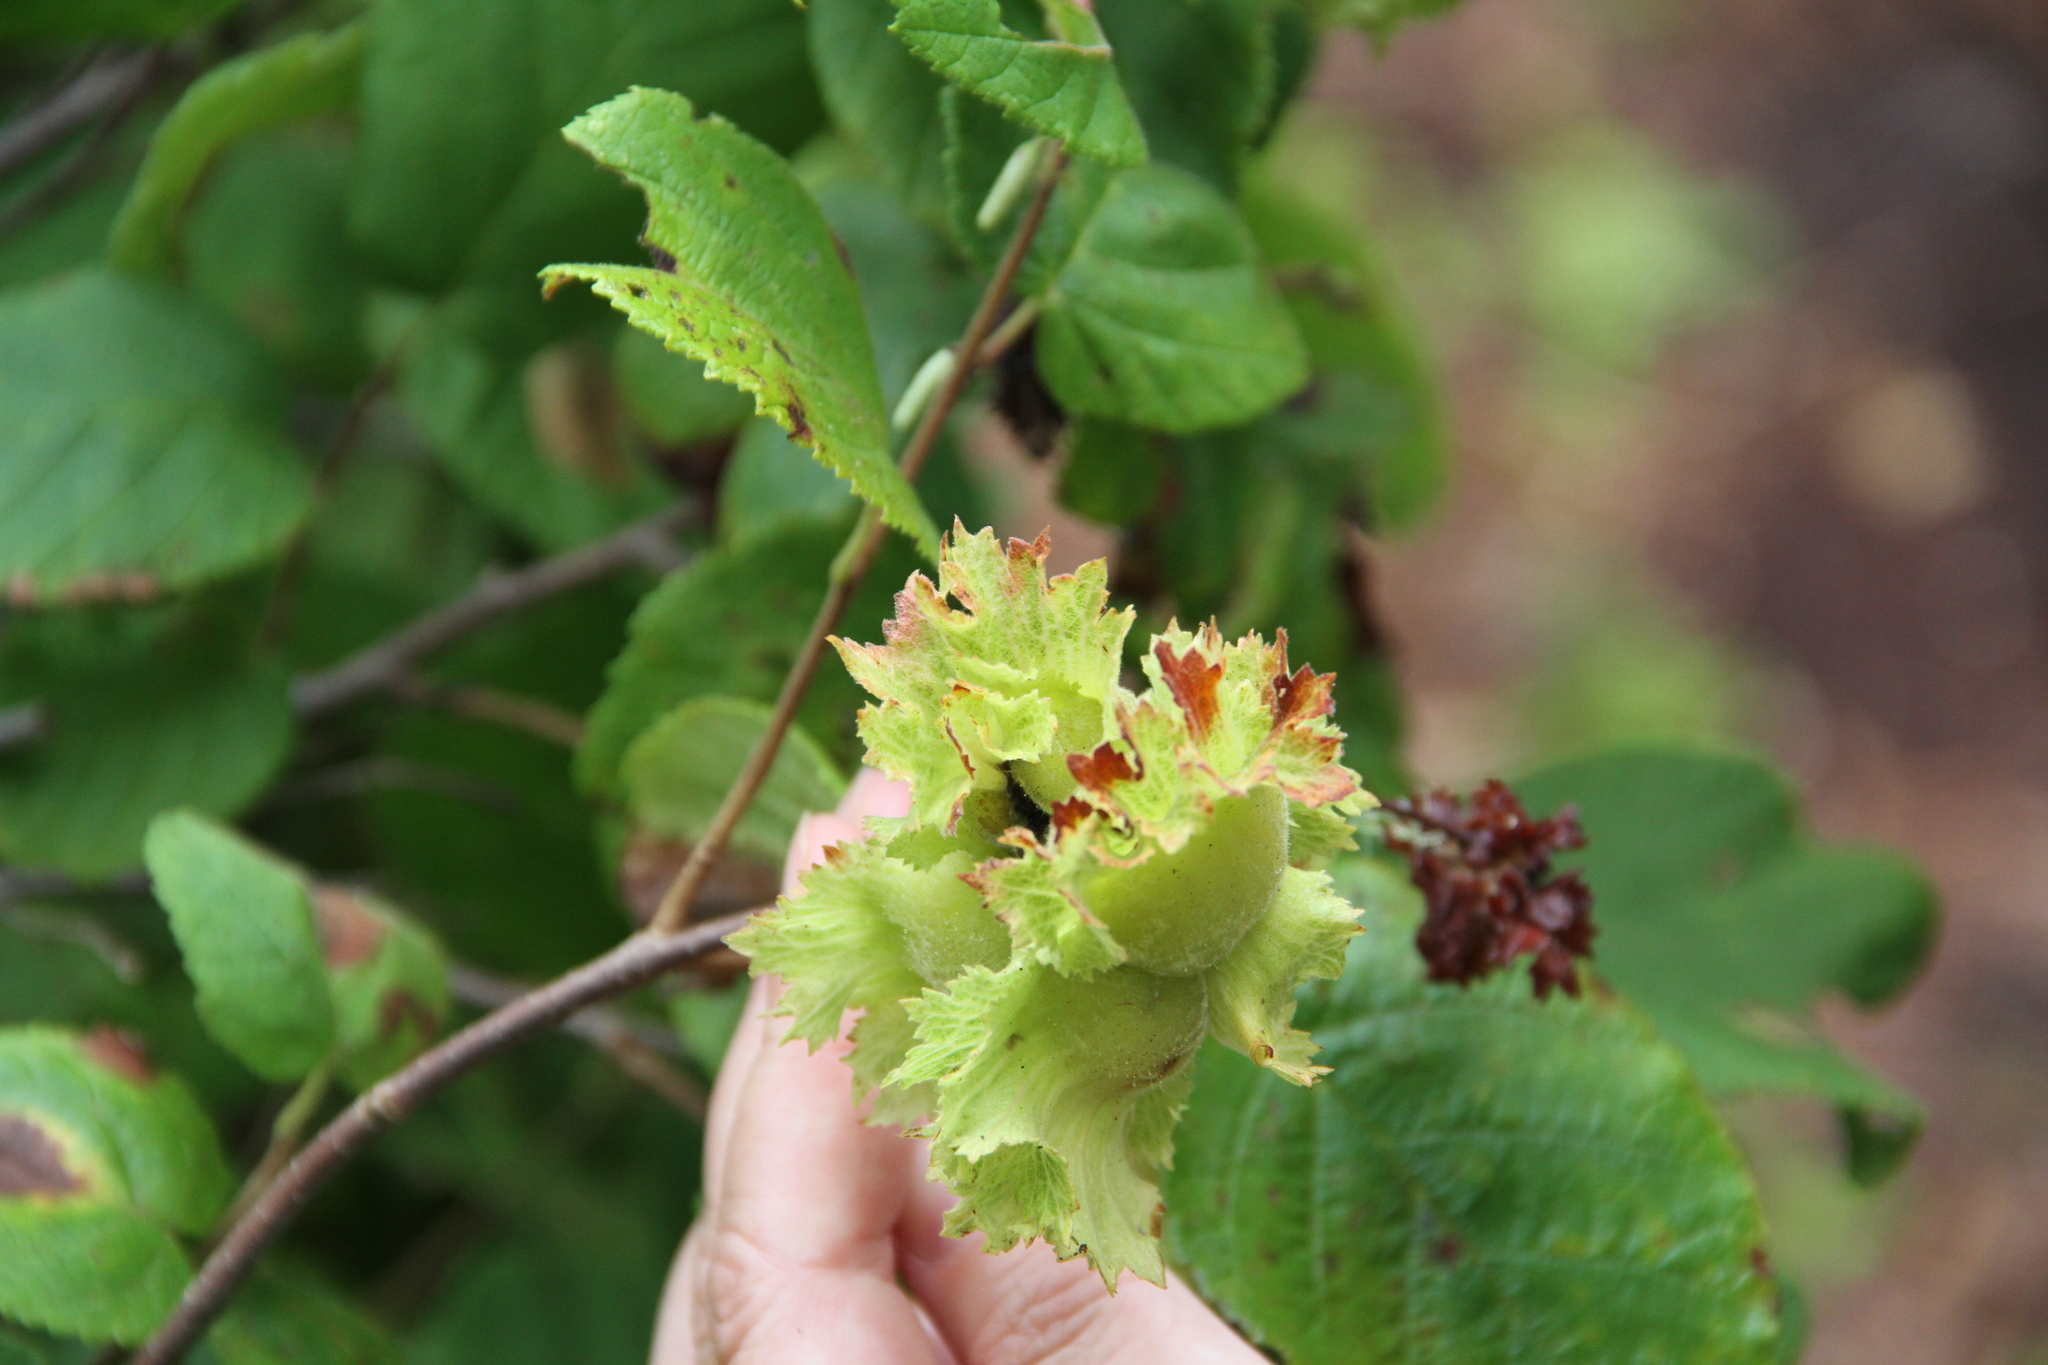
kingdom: Plantae
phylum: Tracheophyta
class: Magnoliopsida
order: Fagales
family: Betulaceae
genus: Corylus
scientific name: Corylus americana
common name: American hazel
